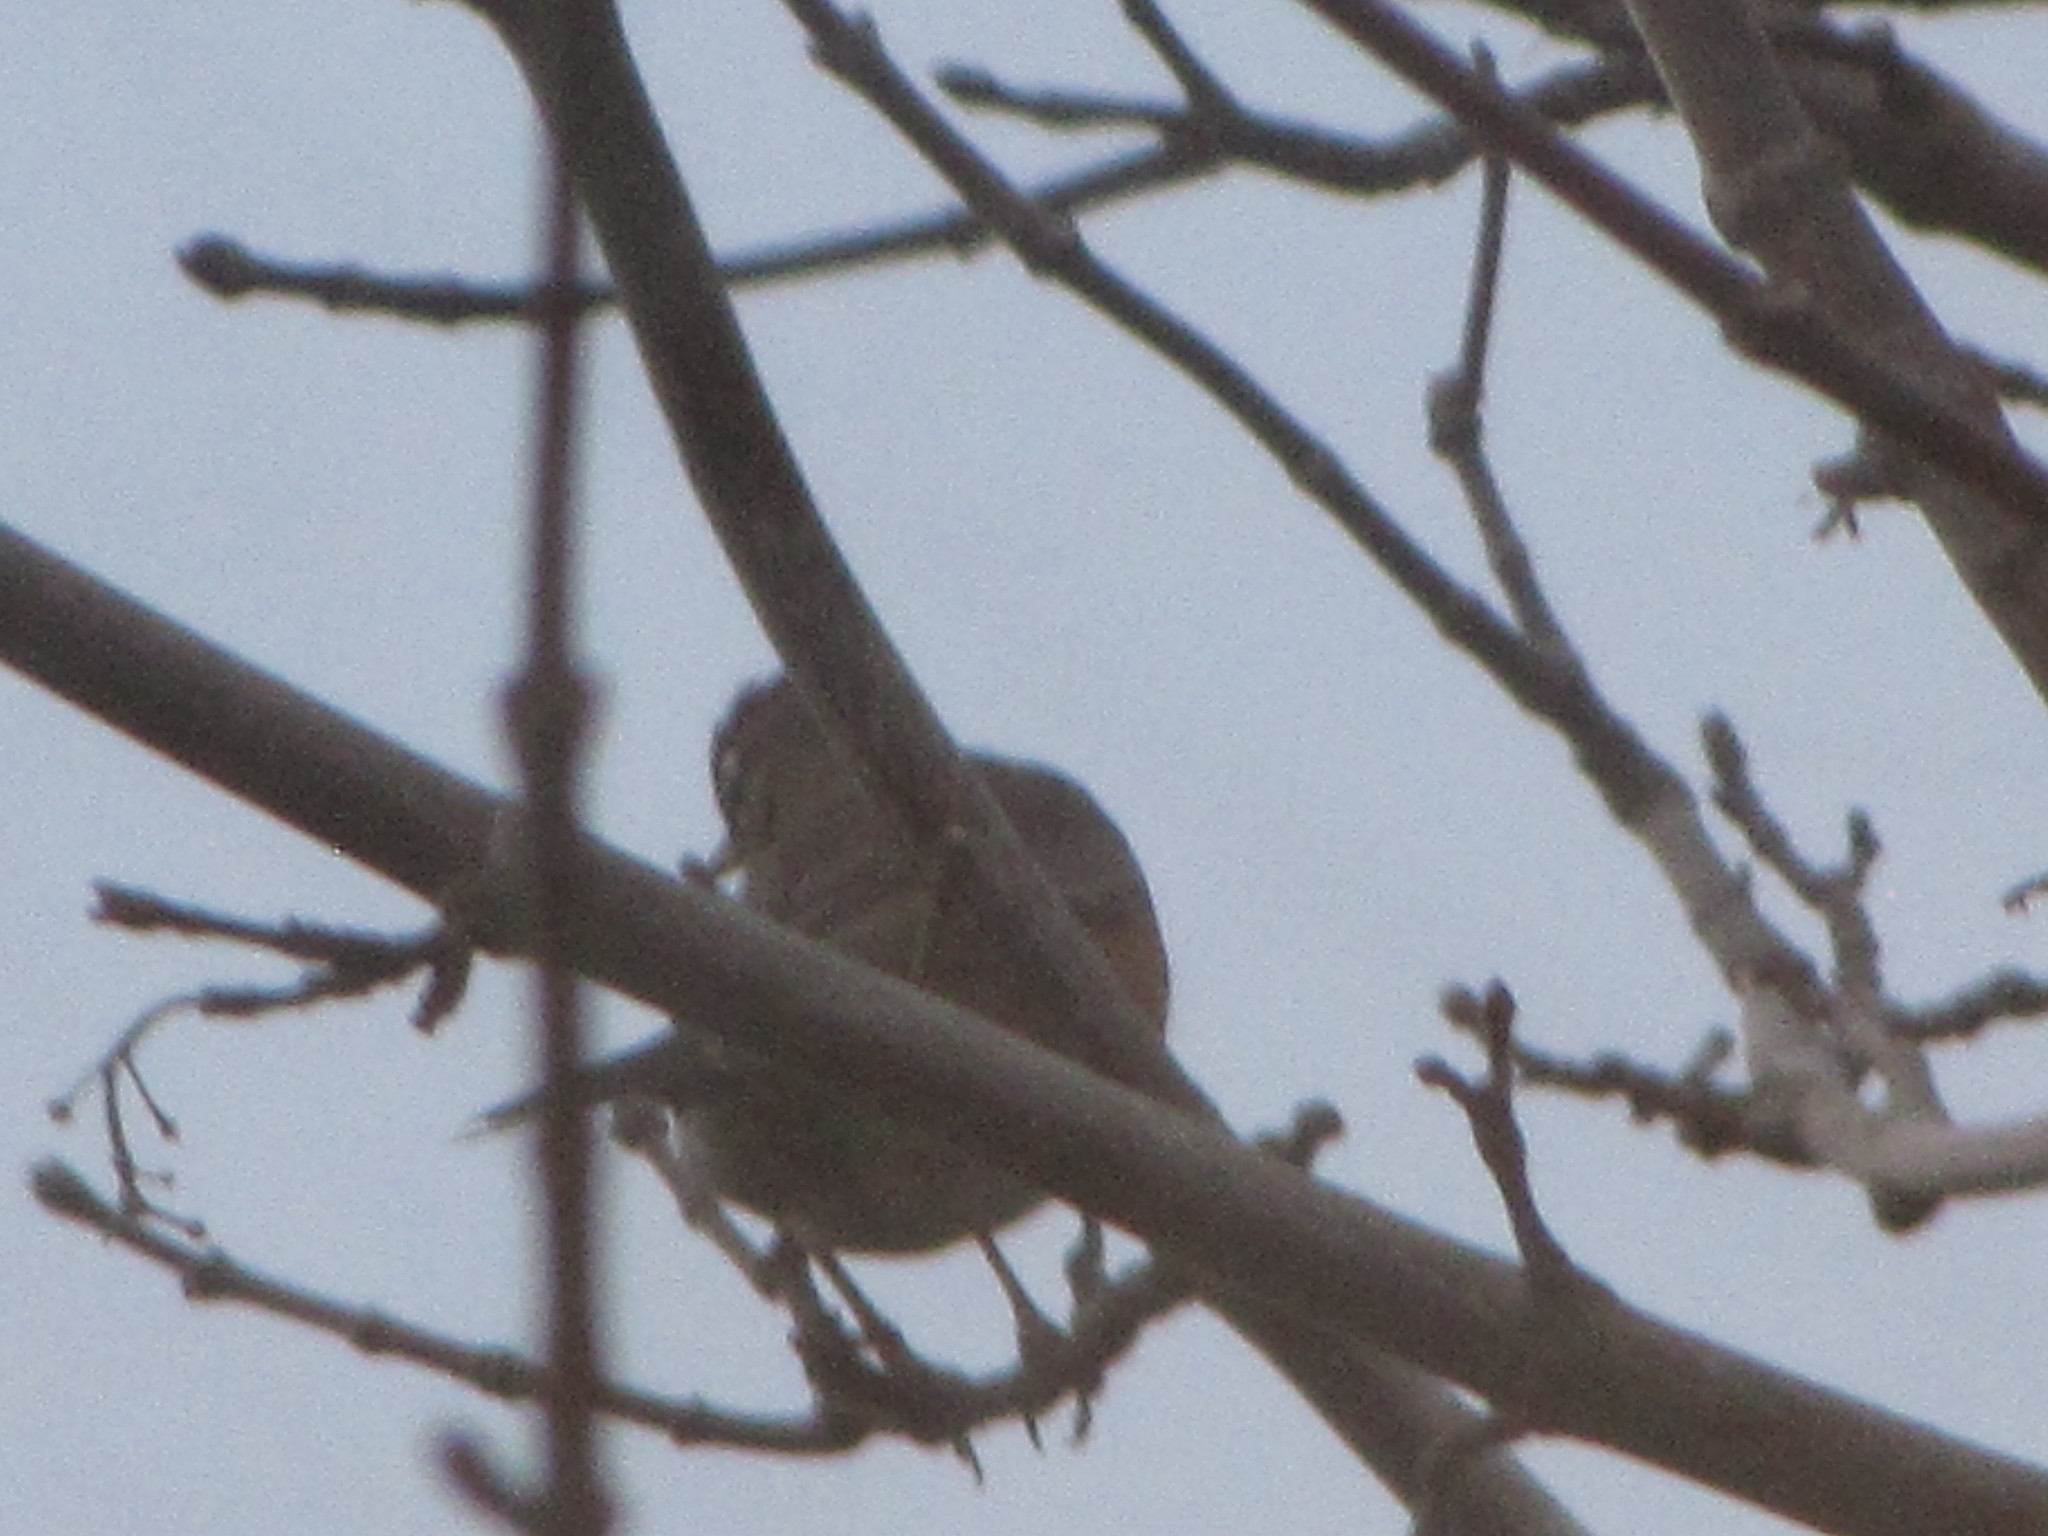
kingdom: Animalia
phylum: Chordata
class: Aves
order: Passeriformes
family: Turdidae
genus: Turdus
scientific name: Turdus migratorius
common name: American robin
